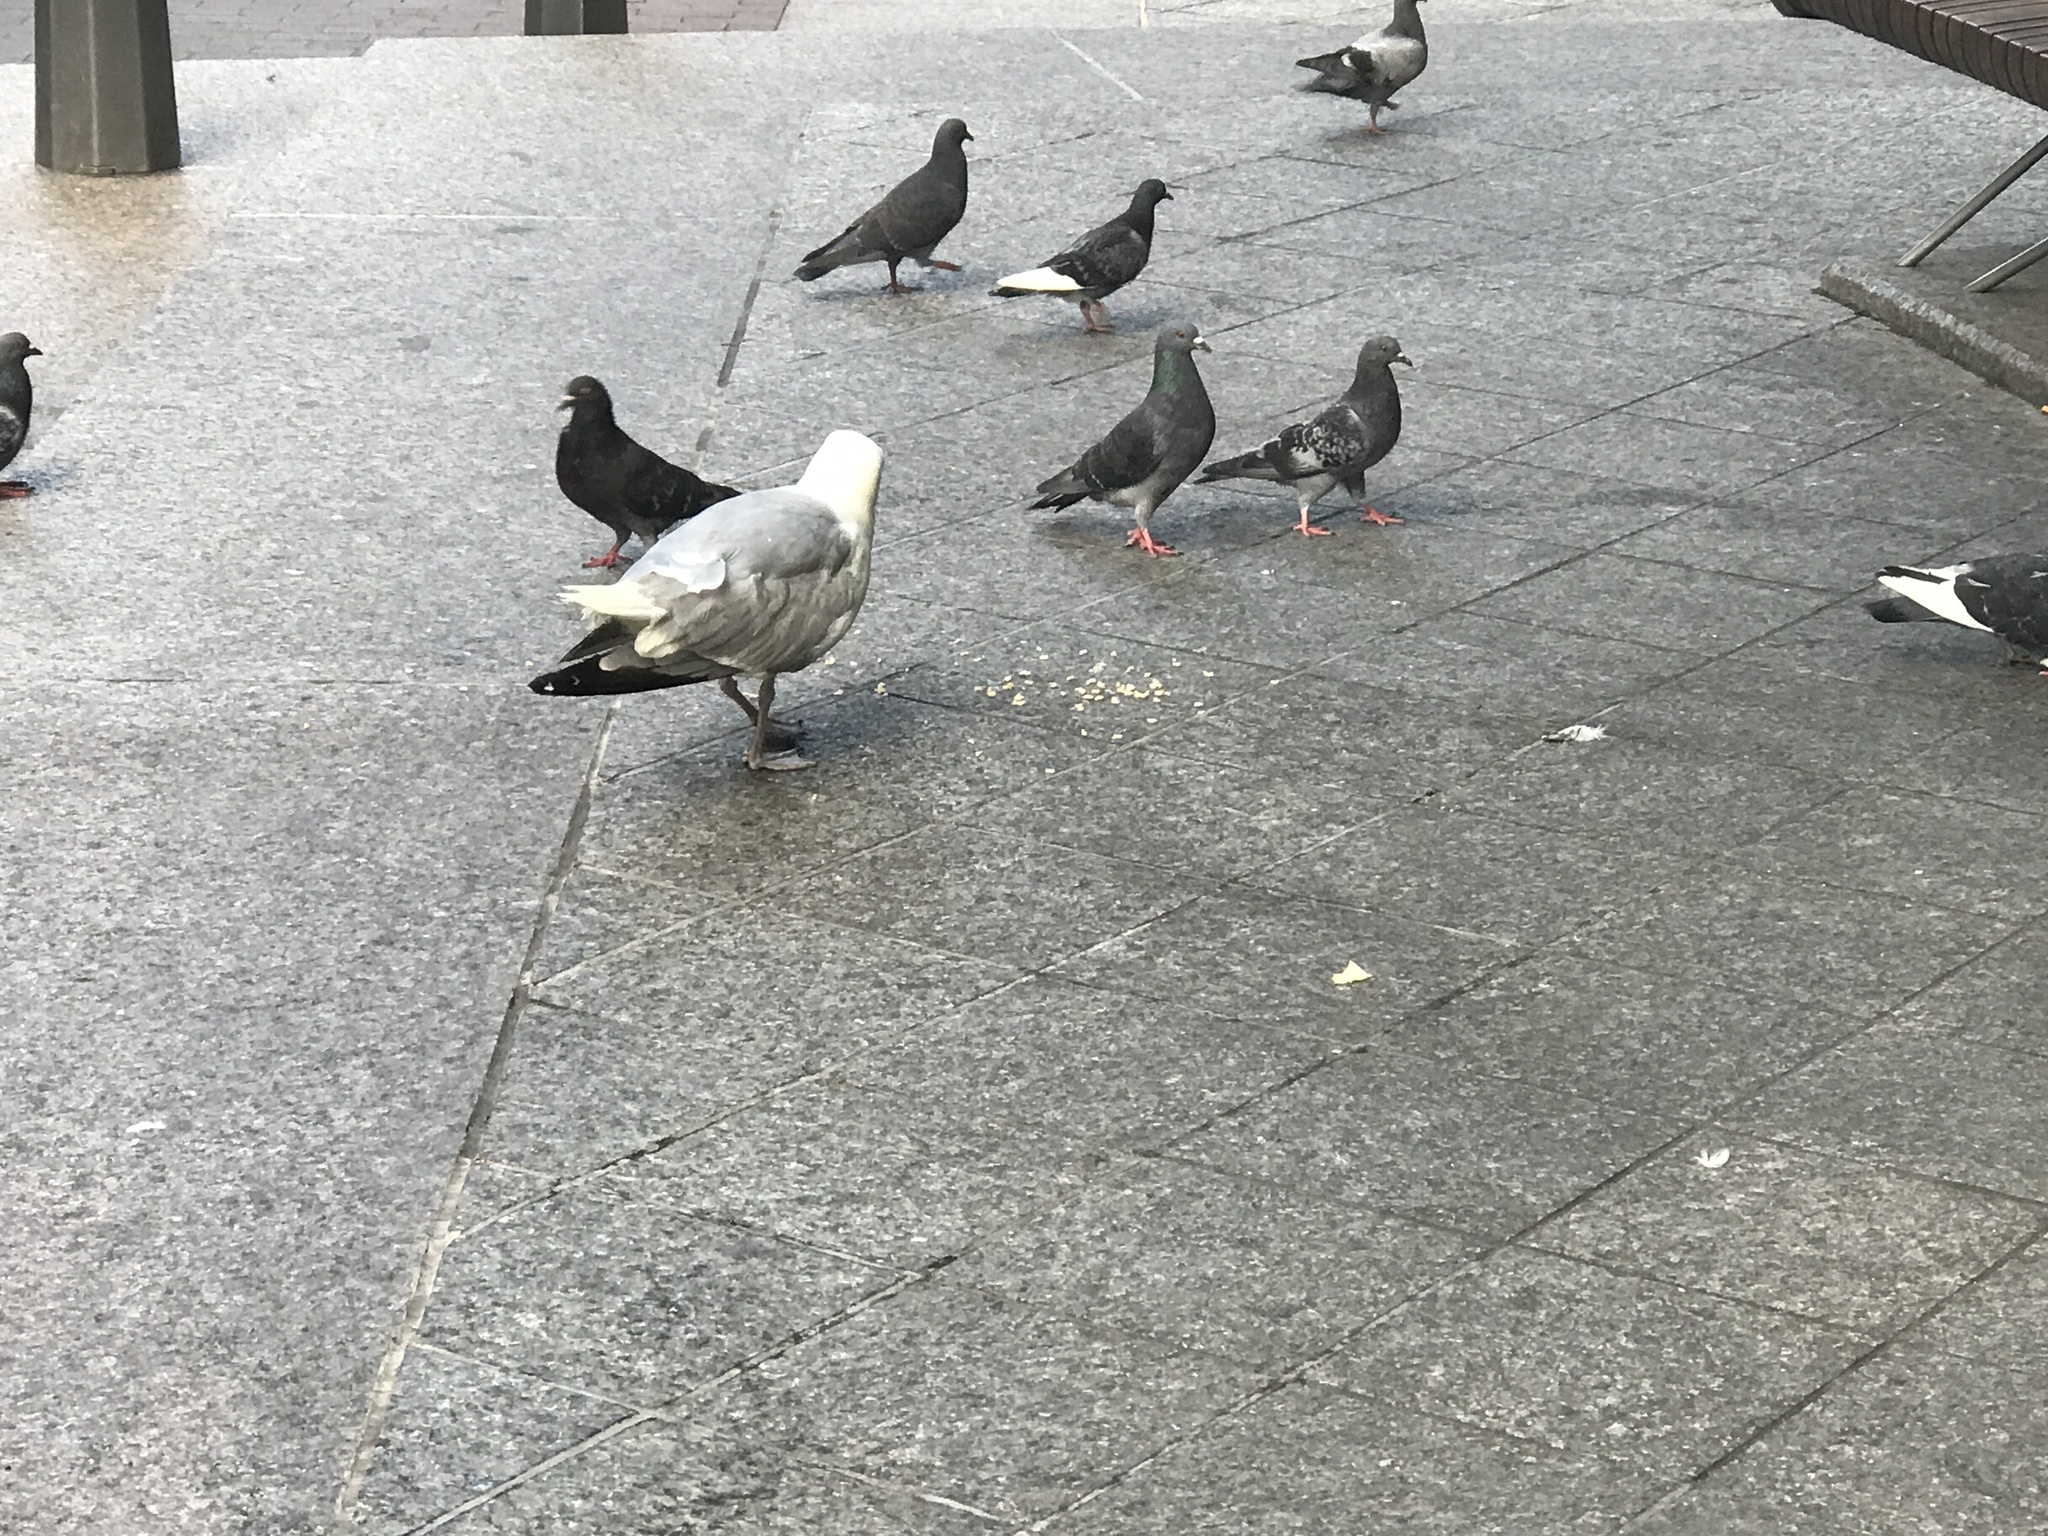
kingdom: Animalia
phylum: Chordata
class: Aves
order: Charadriiformes
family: Laridae
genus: Larus
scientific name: Larus argentatus
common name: Herring gull
